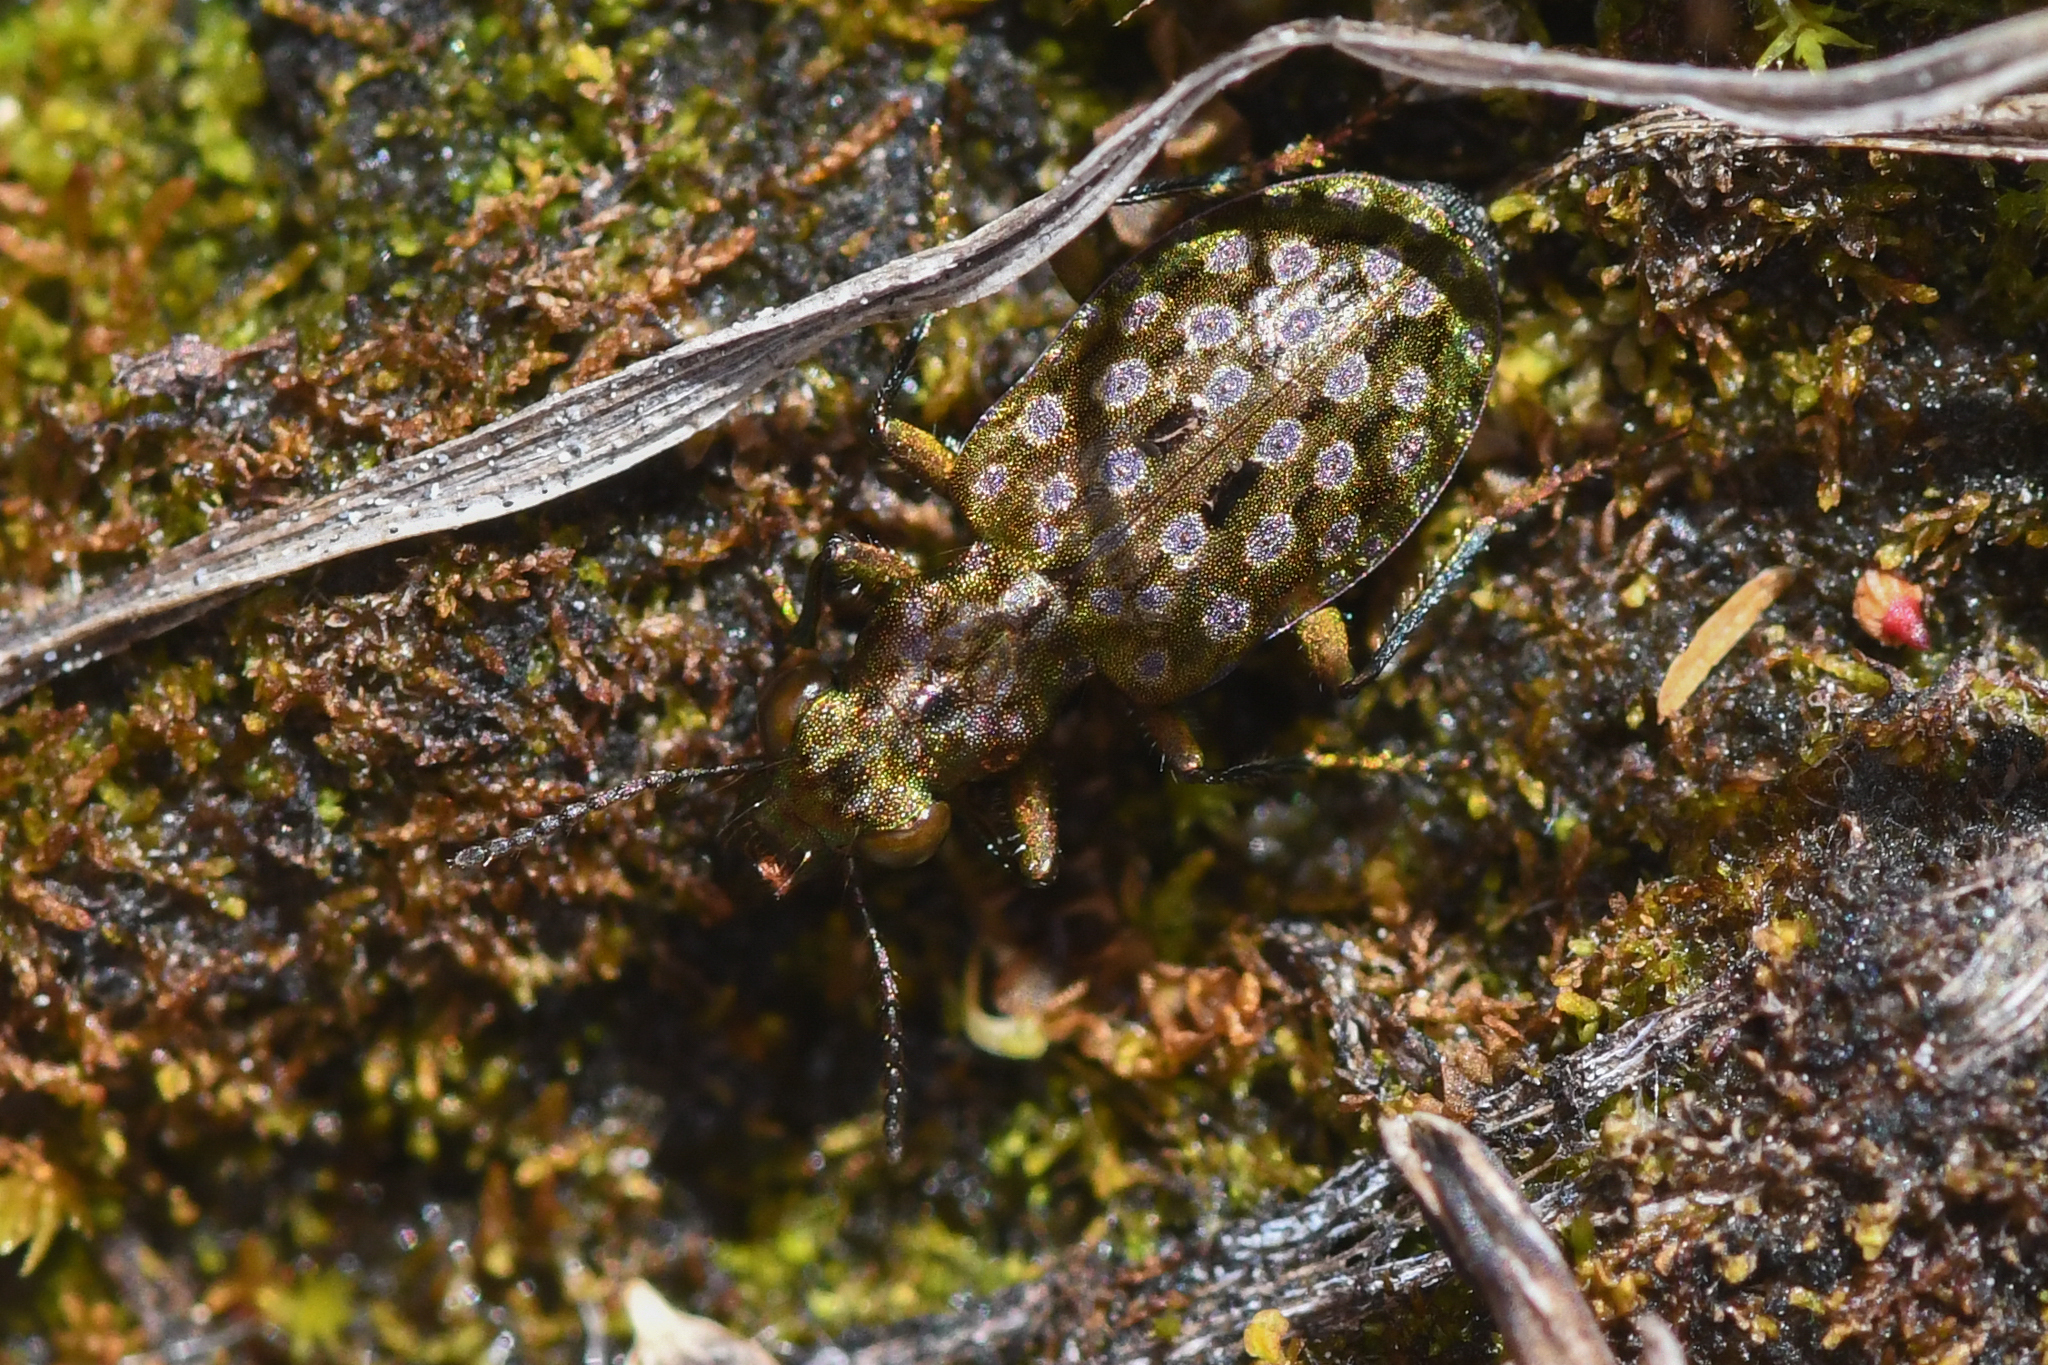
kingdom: Animalia
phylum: Arthropoda
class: Insecta
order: Coleoptera
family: Carabidae
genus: Elaphrus
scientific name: Elaphrus americanus
